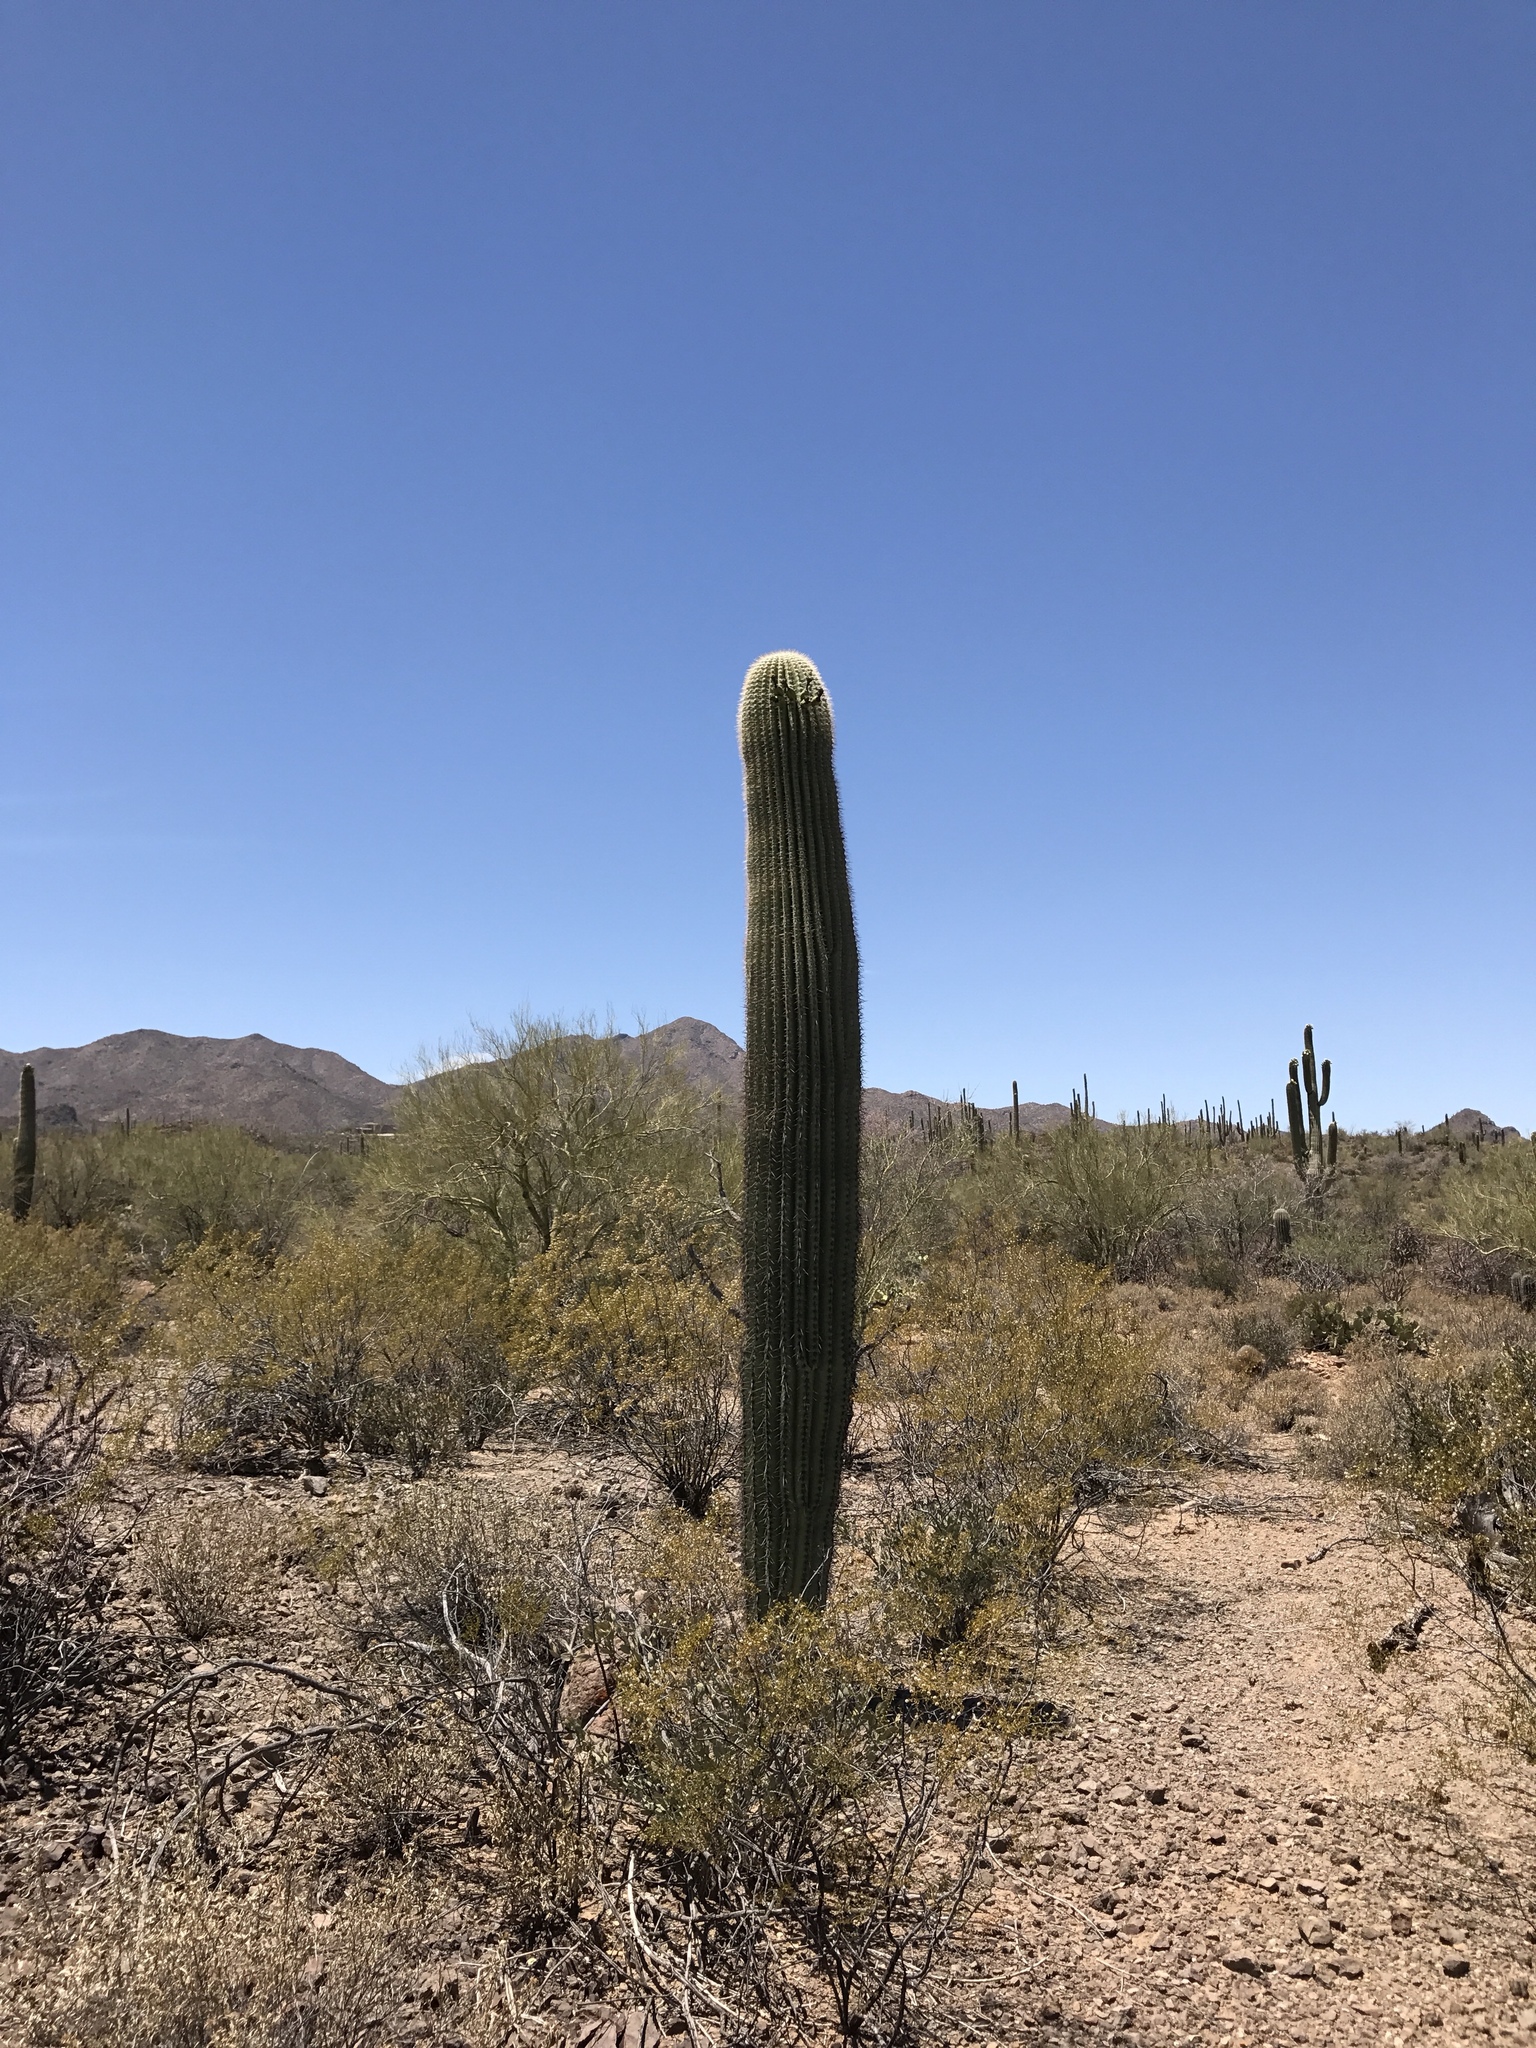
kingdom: Plantae
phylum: Tracheophyta
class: Magnoliopsida
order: Zygophyllales
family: Zygophyllaceae
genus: Larrea
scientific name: Larrea tridentata
